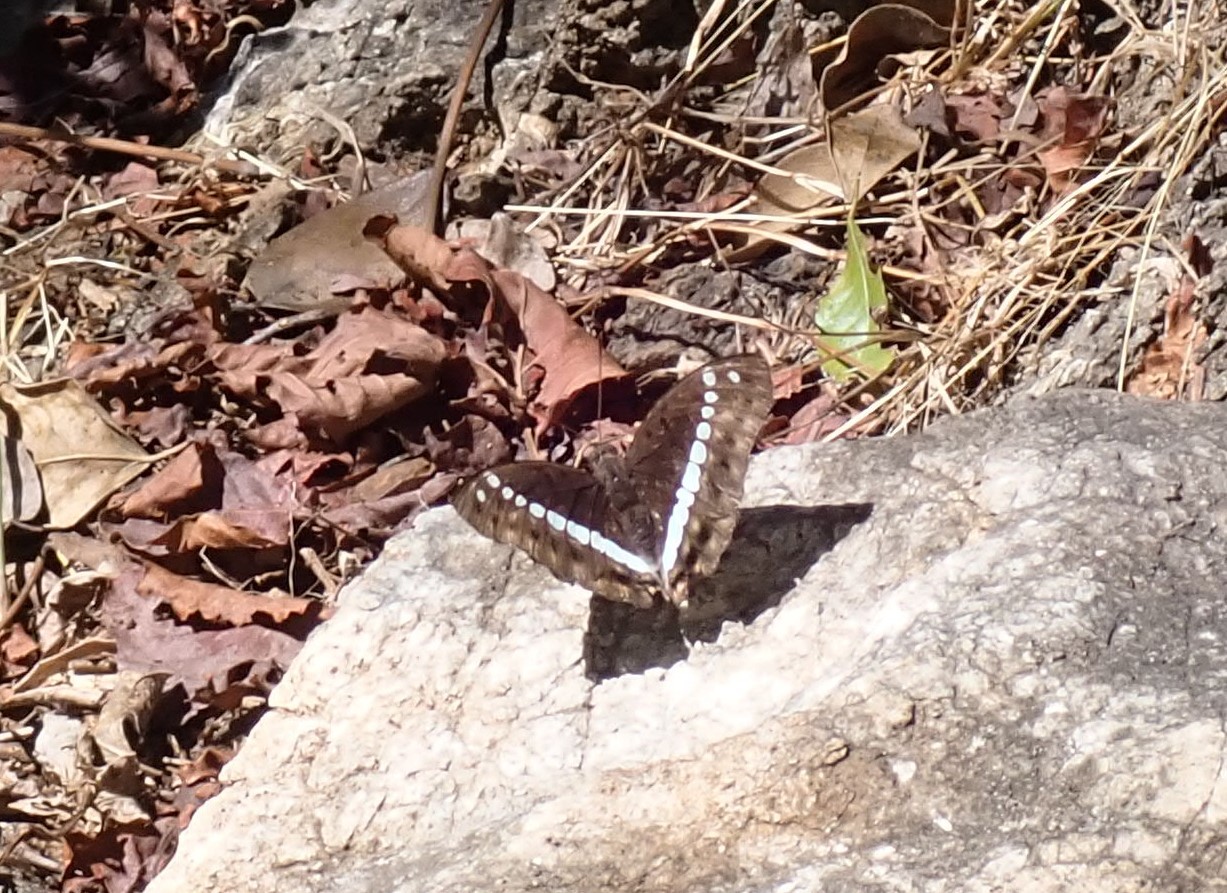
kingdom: Animalia
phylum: Arthropoda
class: Insecta
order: Lepidoptera
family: Nymphalidae
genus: Euthalia
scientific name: Euthalia Bassarona teuta
